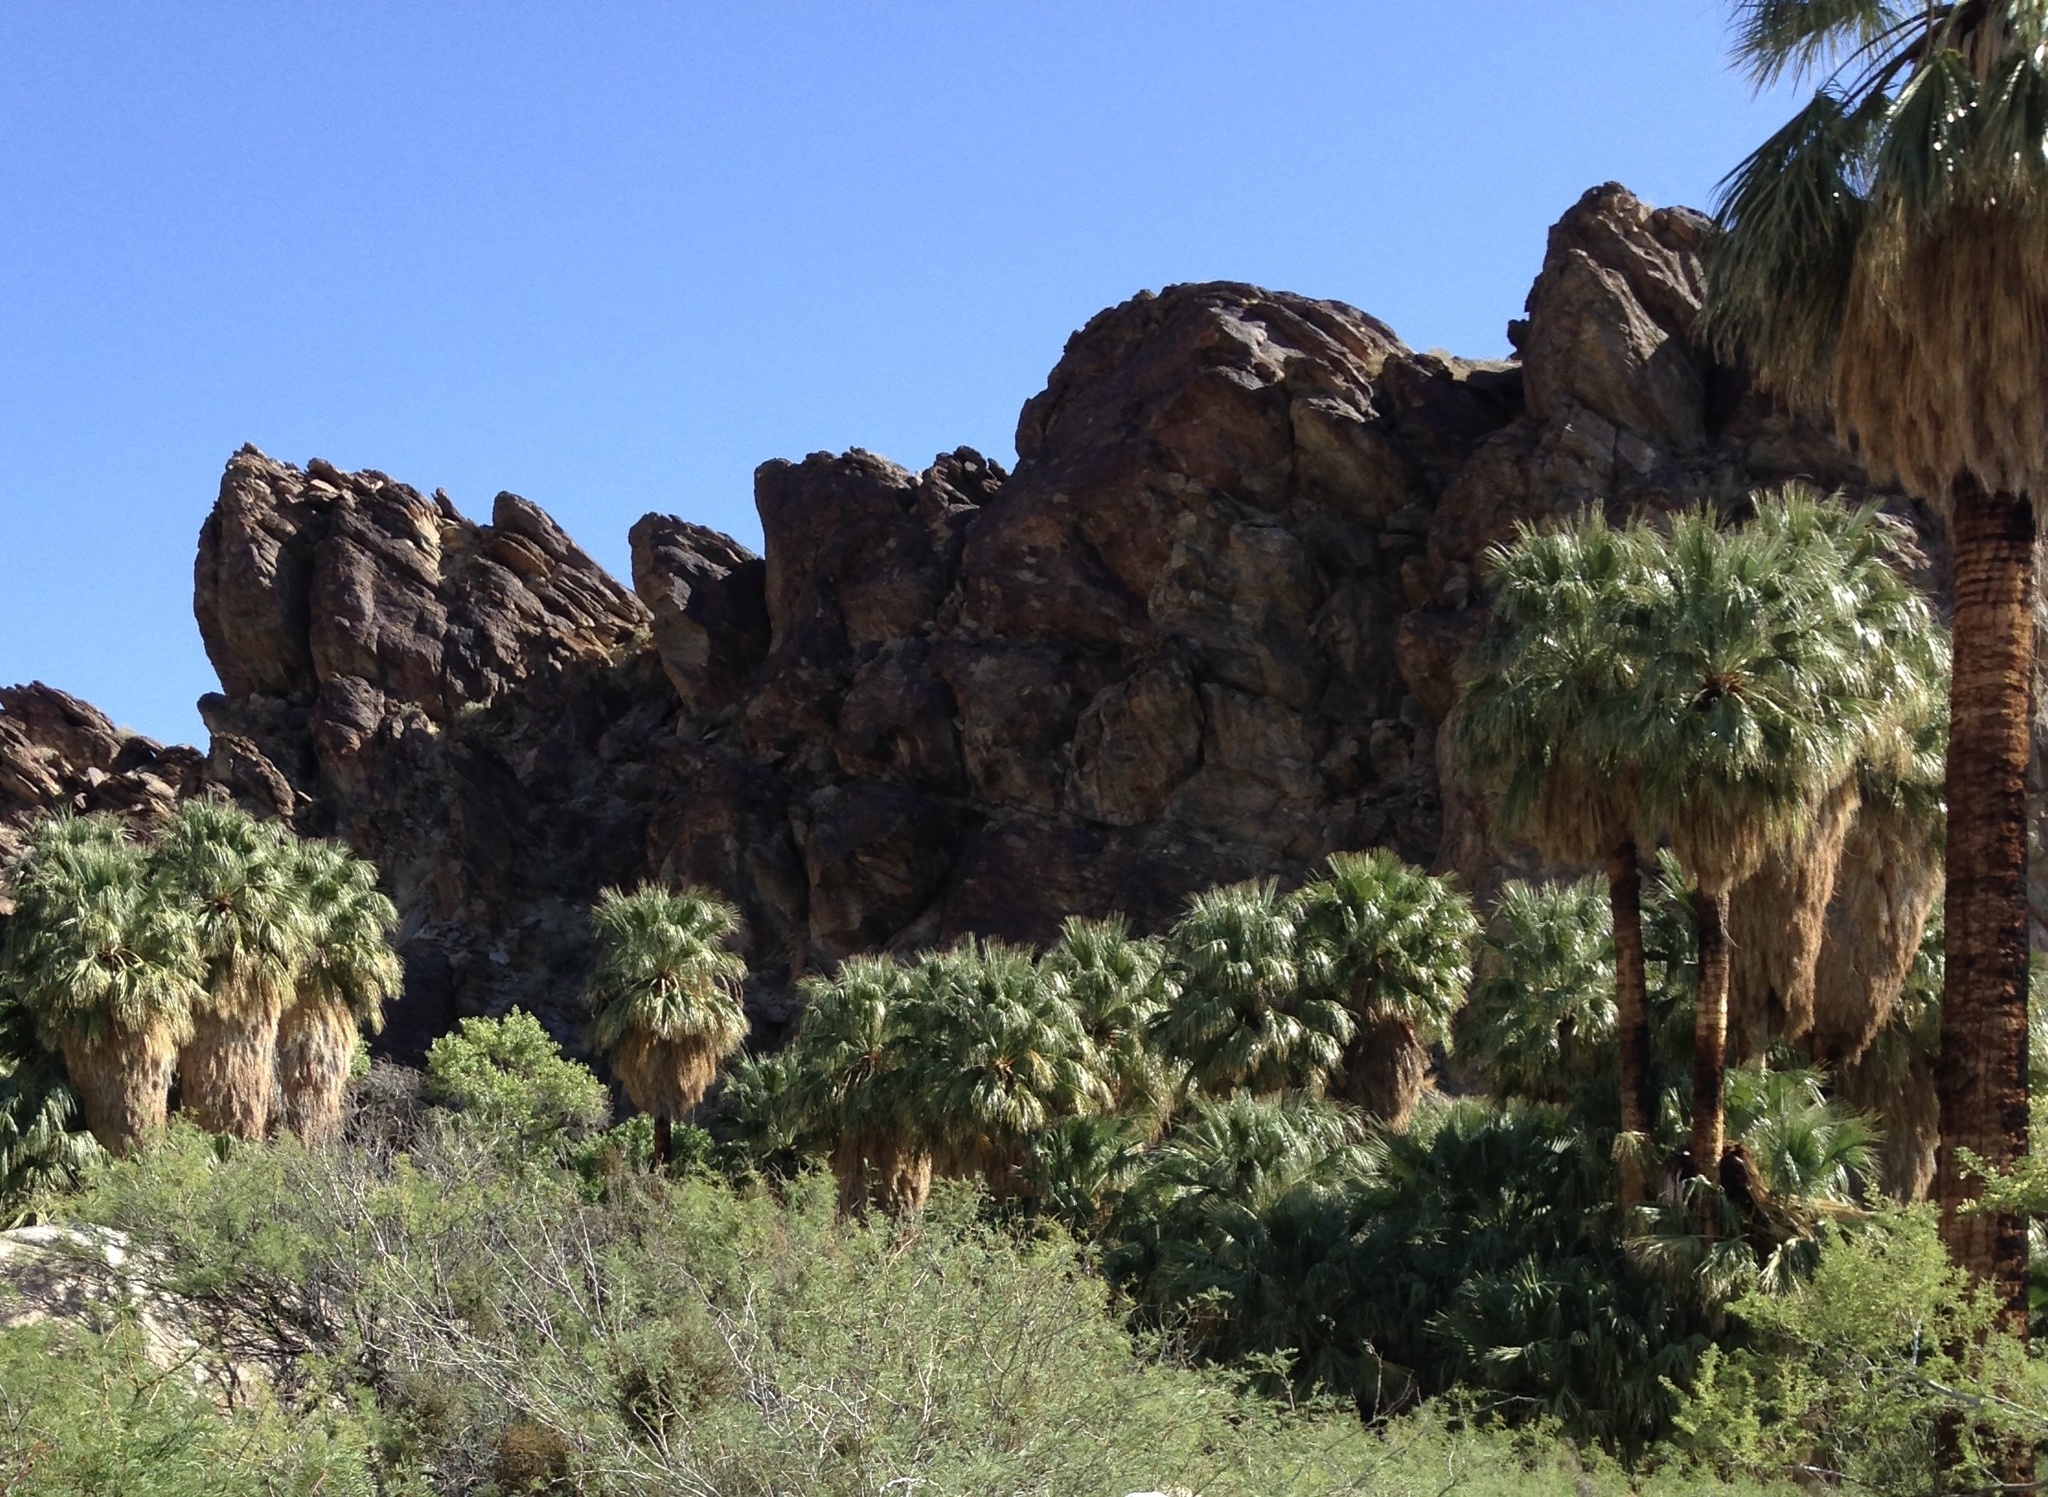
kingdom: Plantae
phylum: Tracheophyta
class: Liliopsida
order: Arecales
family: Arecaceae
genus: Washingtonia
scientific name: Washingtonia filifera
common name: California fan palm
